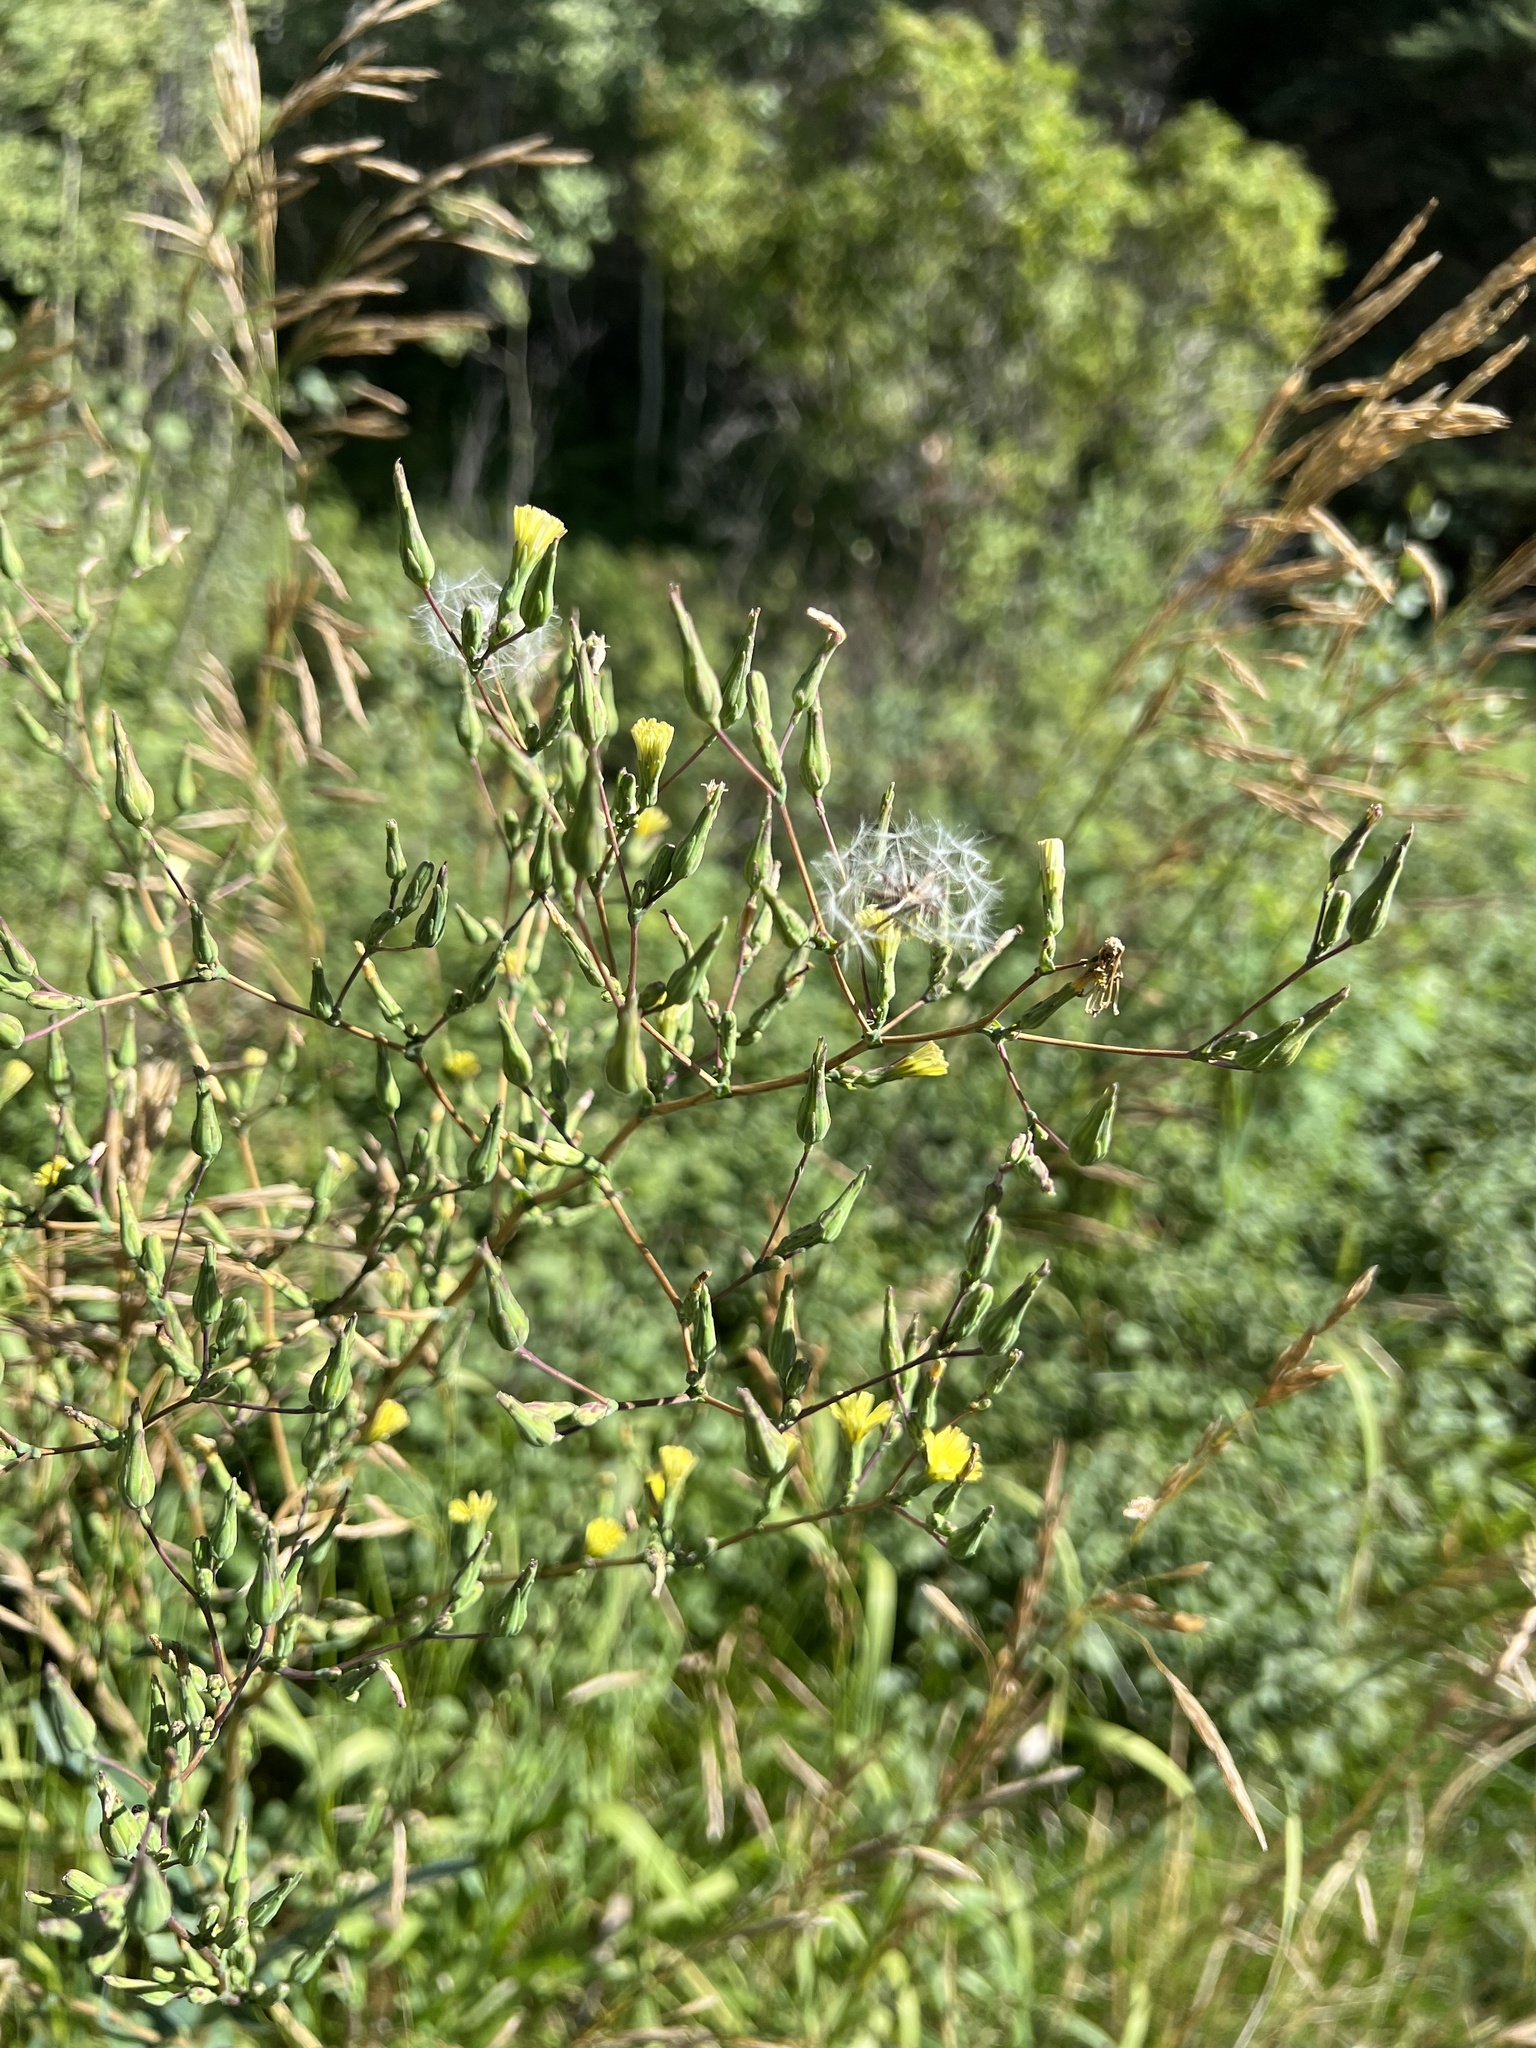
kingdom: Plantae
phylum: Tracheophyta
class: Magnoliopsida
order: Asterales
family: Asteraceae
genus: Lactuca
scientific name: Lactuca serriola
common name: Prickly lettuce
